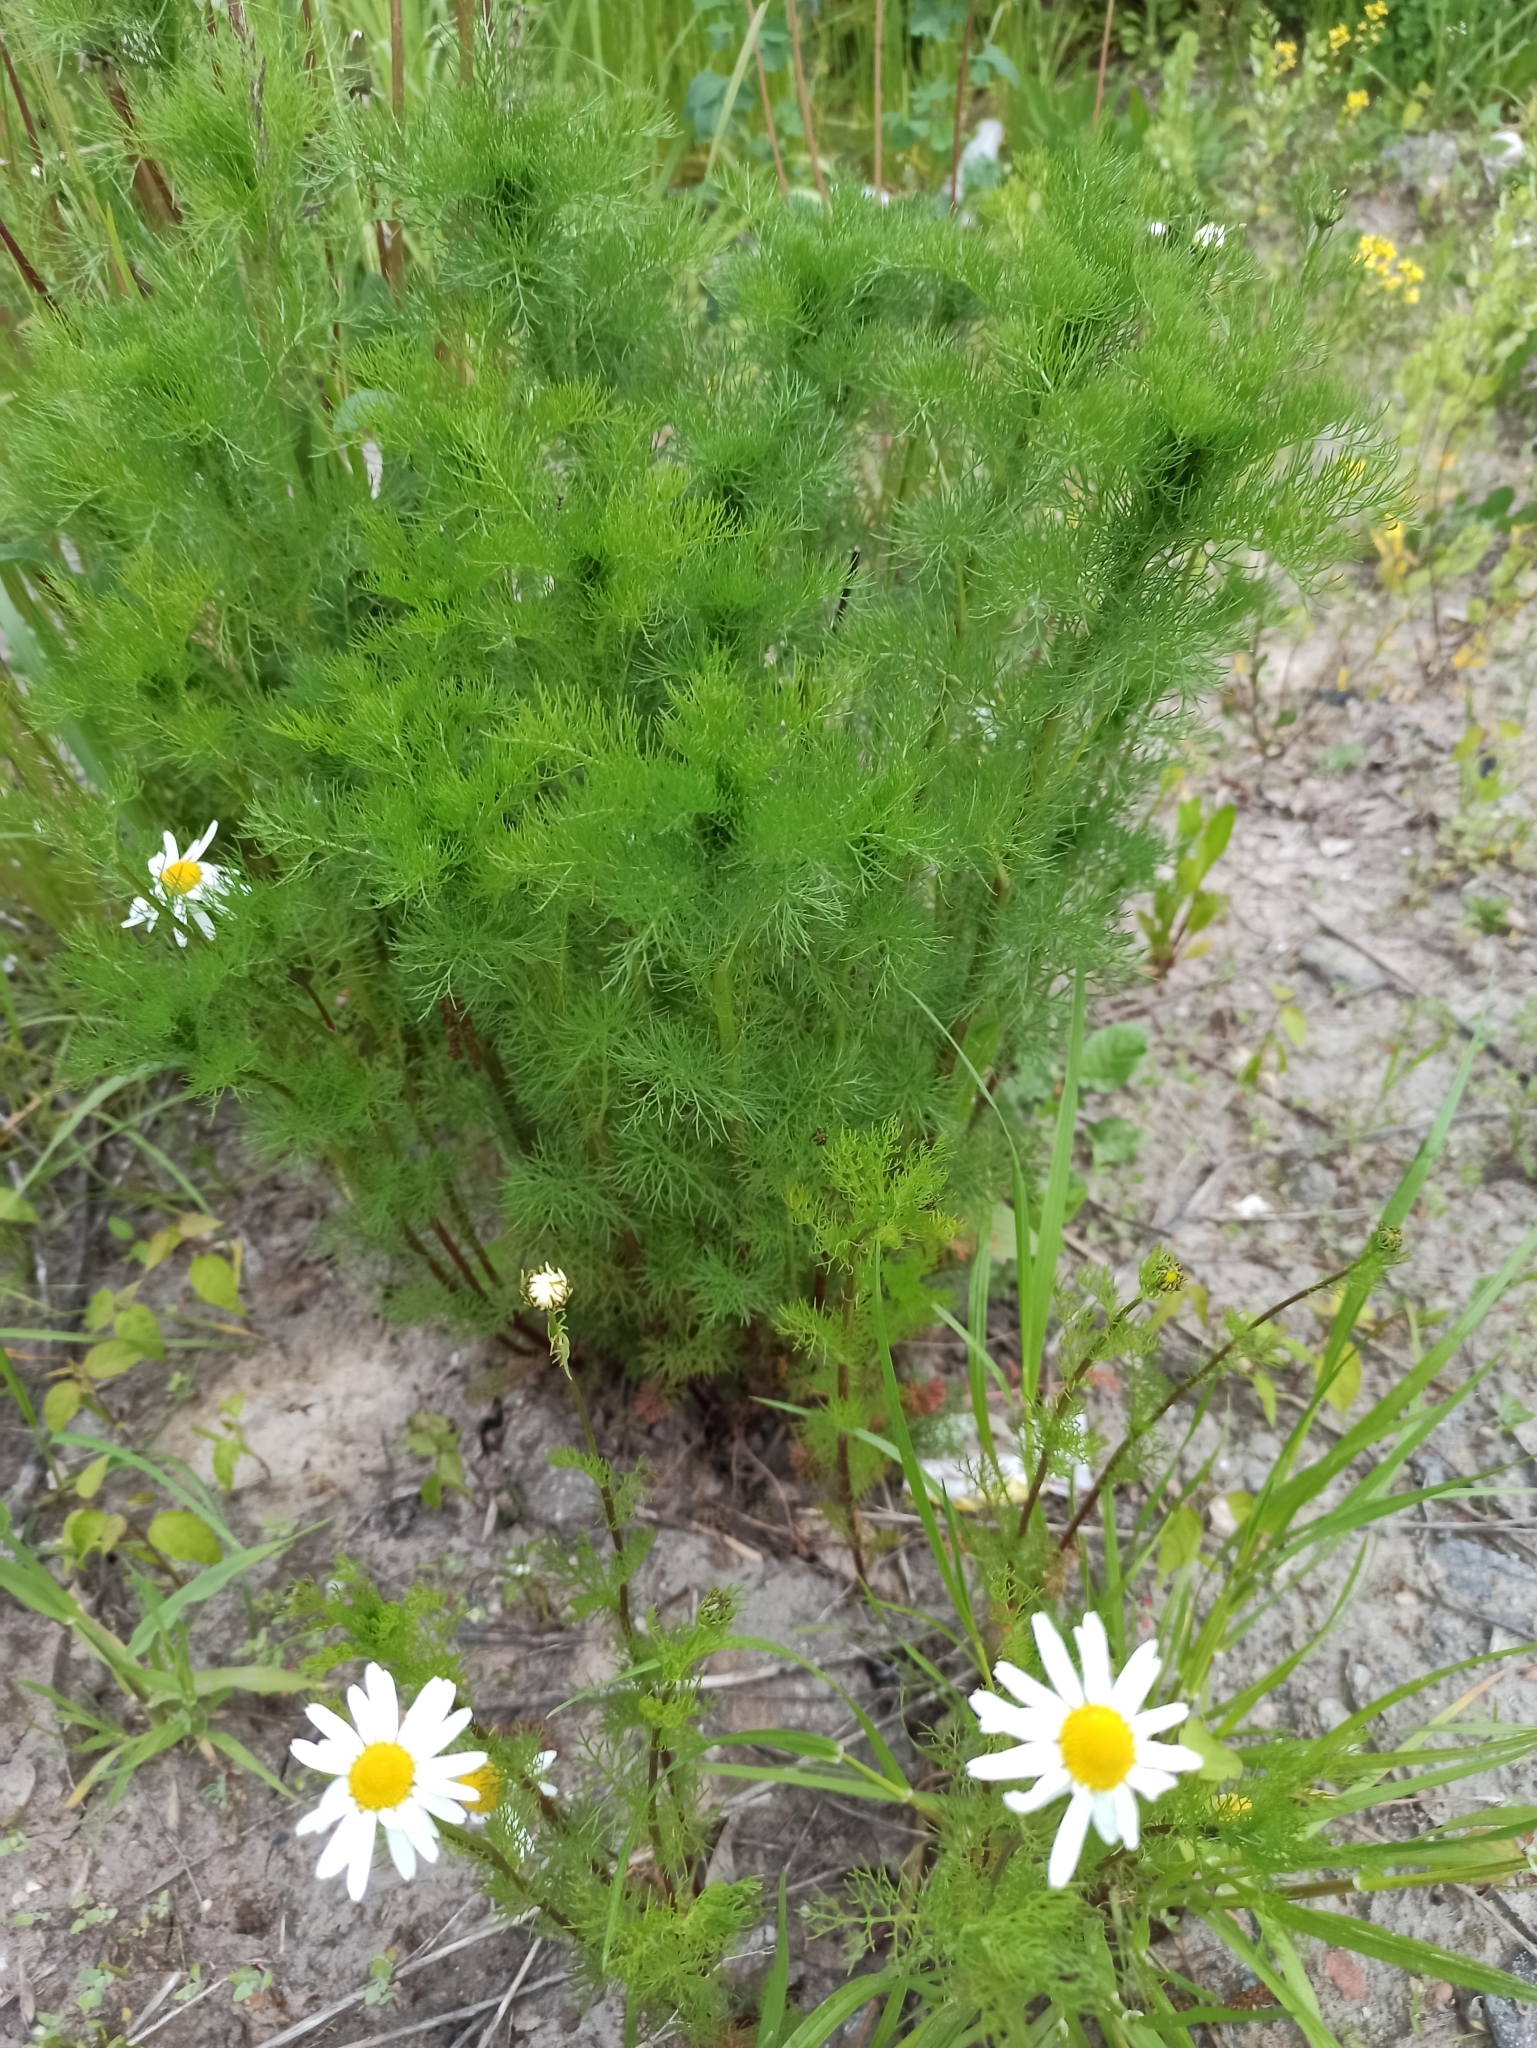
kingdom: Plantae
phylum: Tracheophyta
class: Magnoliopsida
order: Asterales
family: Asteraceae
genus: Tripleurospermum
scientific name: Tripleurospermum inodorum
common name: Scentless mayweed
